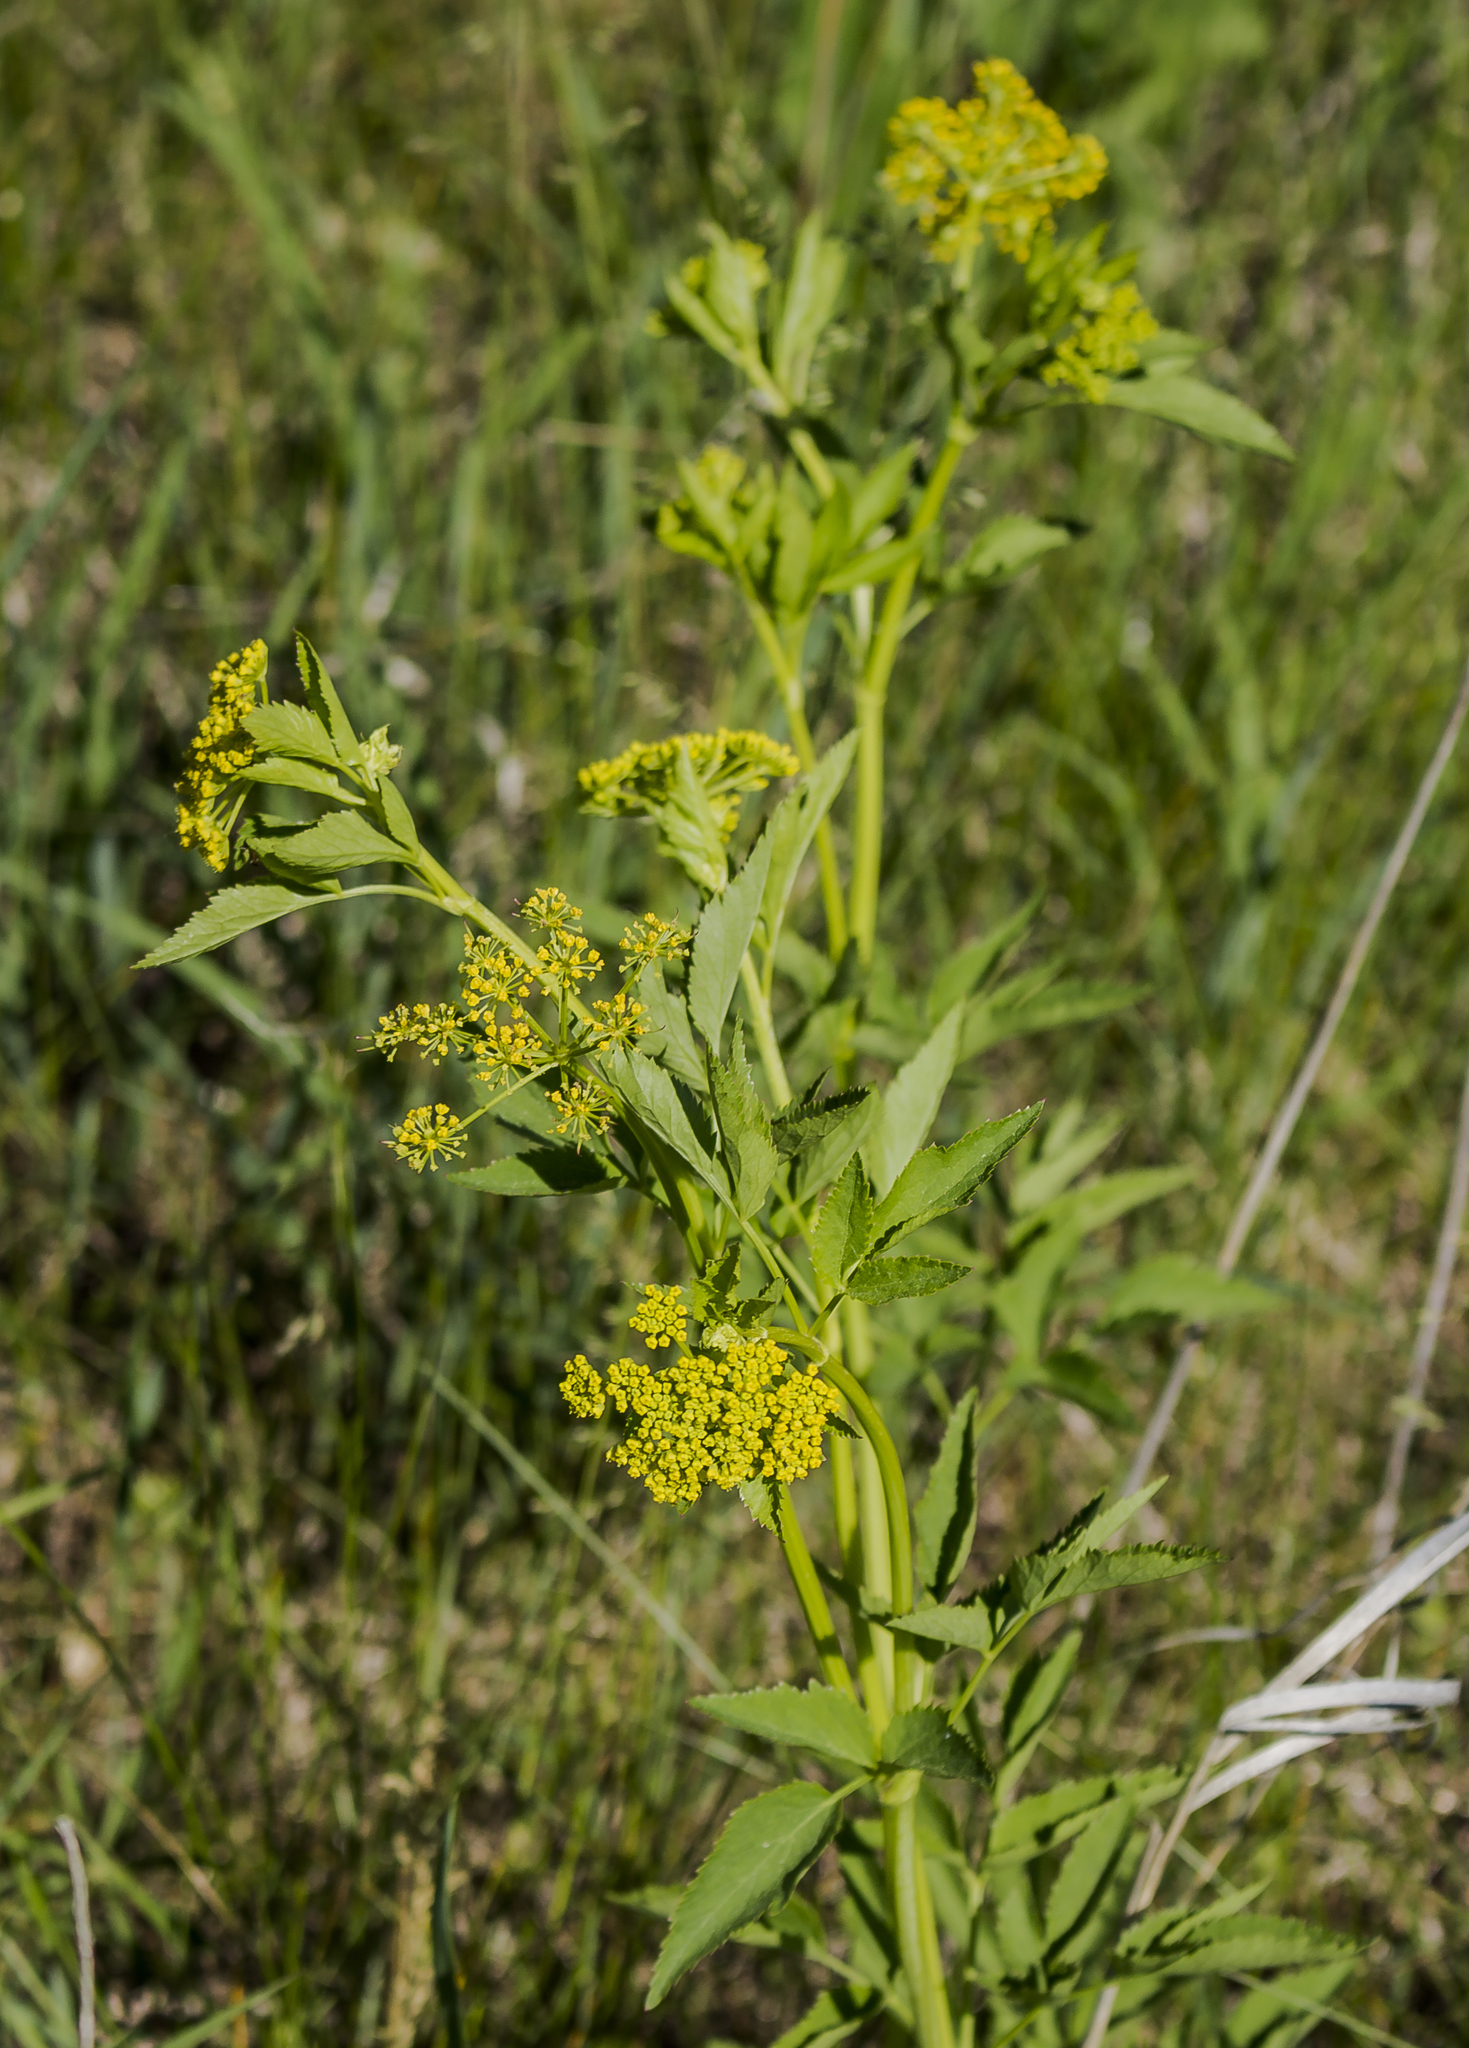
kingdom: Plantae
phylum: Tracheophyta
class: Magnoliopsida
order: Apiales
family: Apiaceae
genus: Zizia
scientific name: Zizia aurea
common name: Golden alexanders
